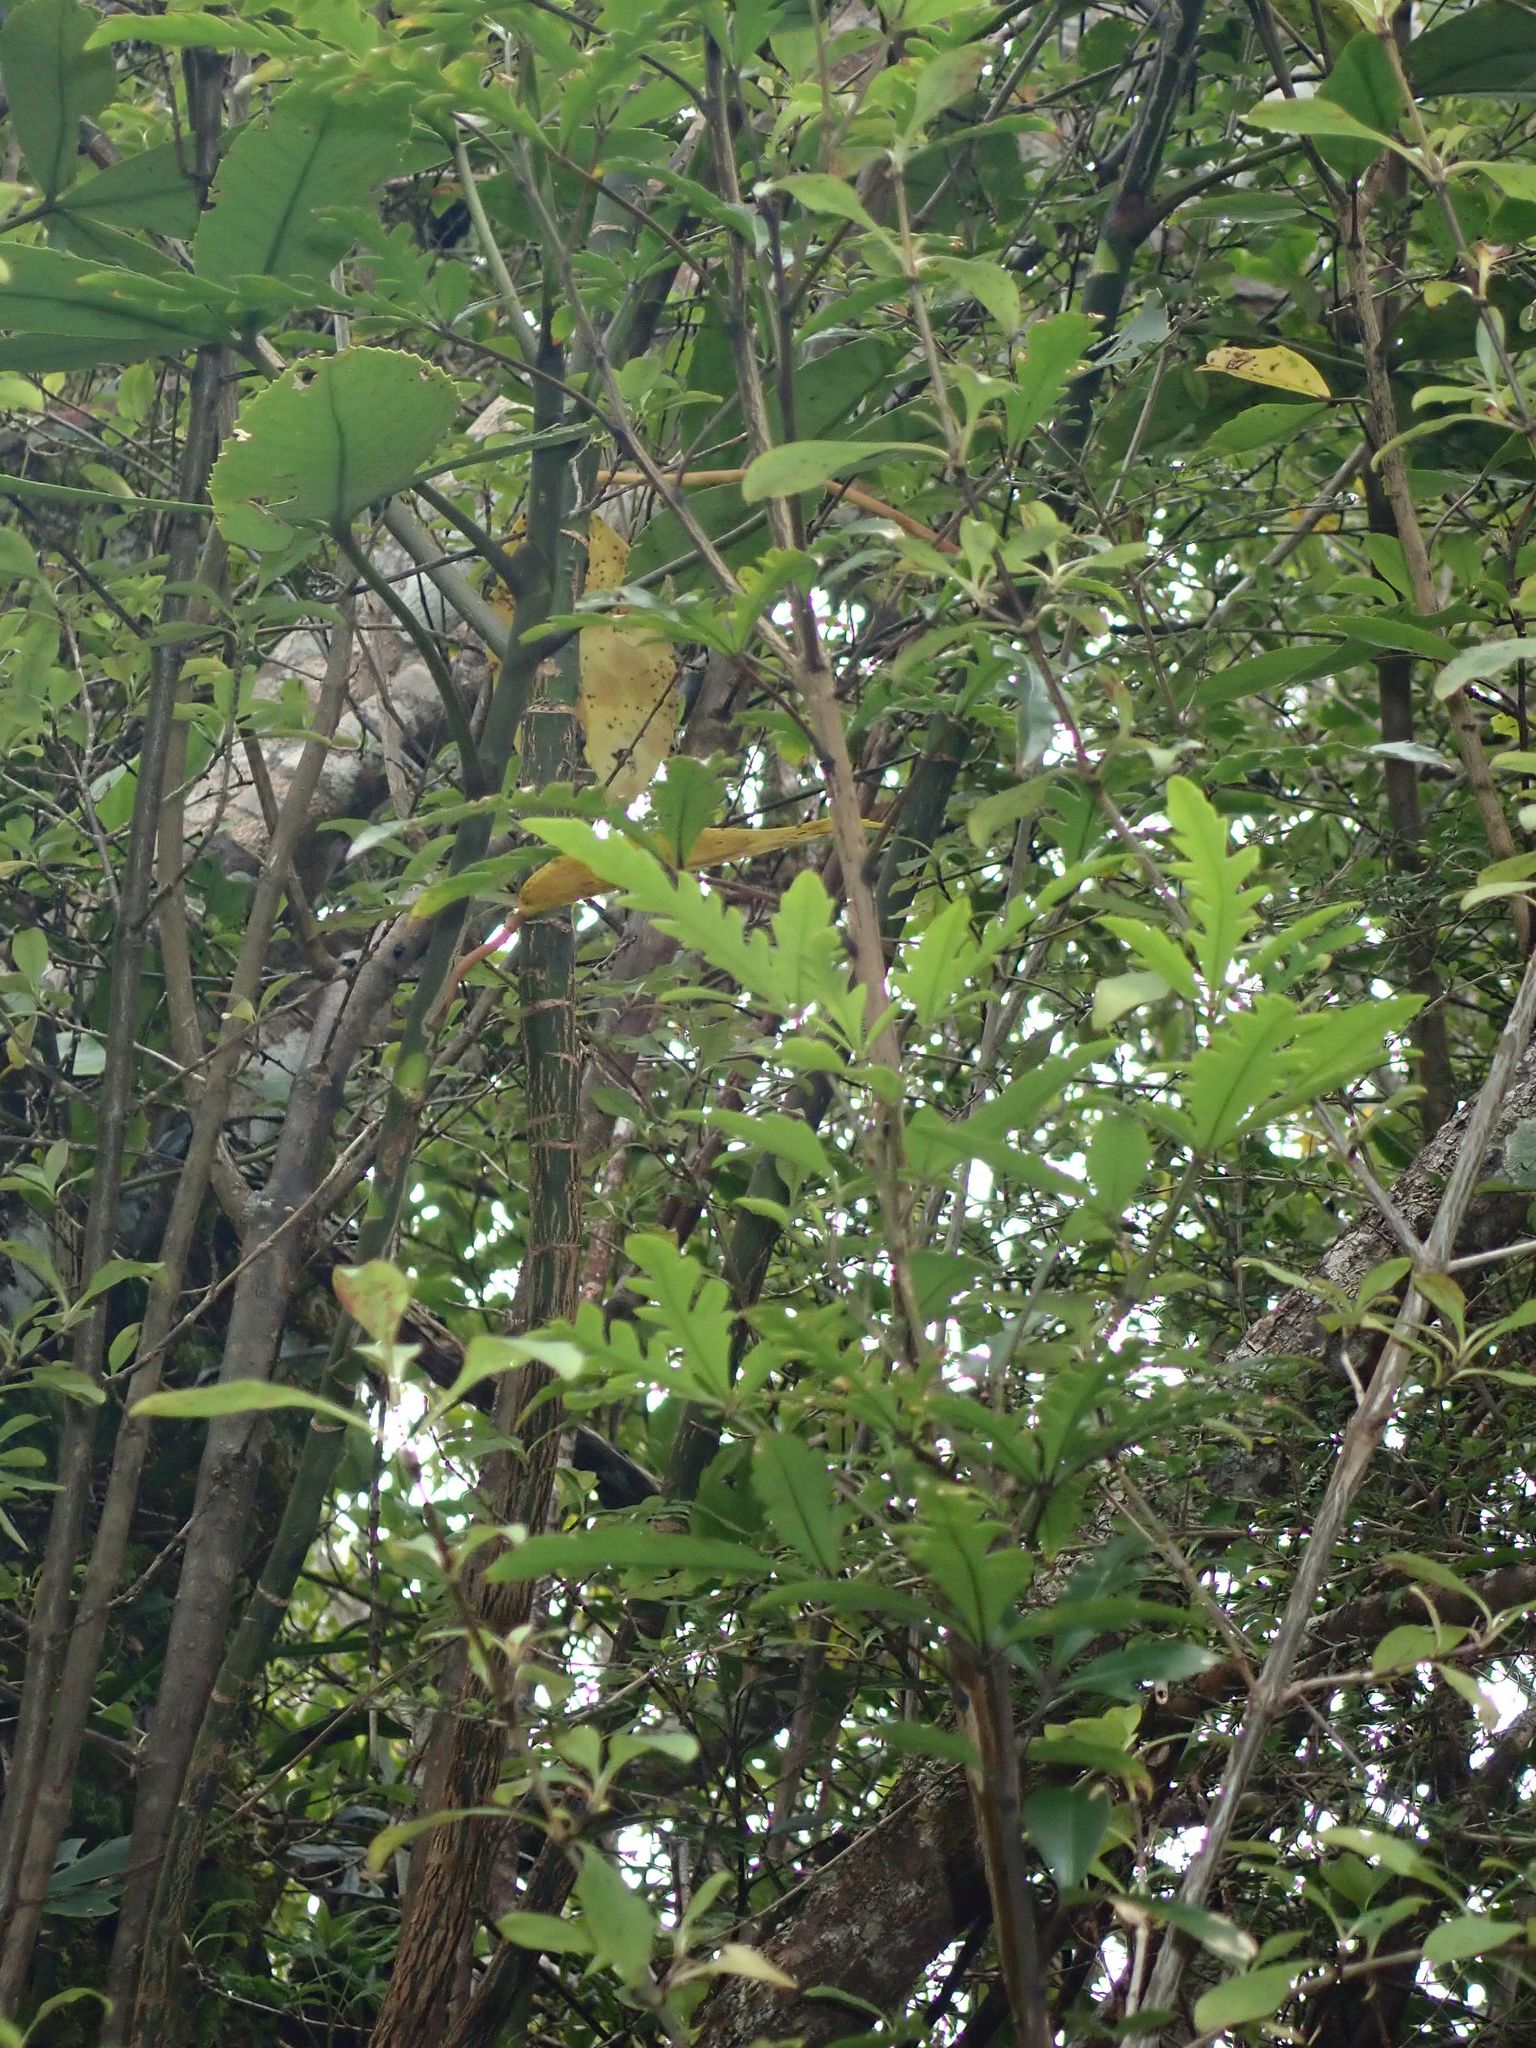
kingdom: Plantae
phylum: Tracheophyta
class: Magnoliopsida
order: Apiales
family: Araliaceae
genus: Raukaua
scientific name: Raukaua simplex
